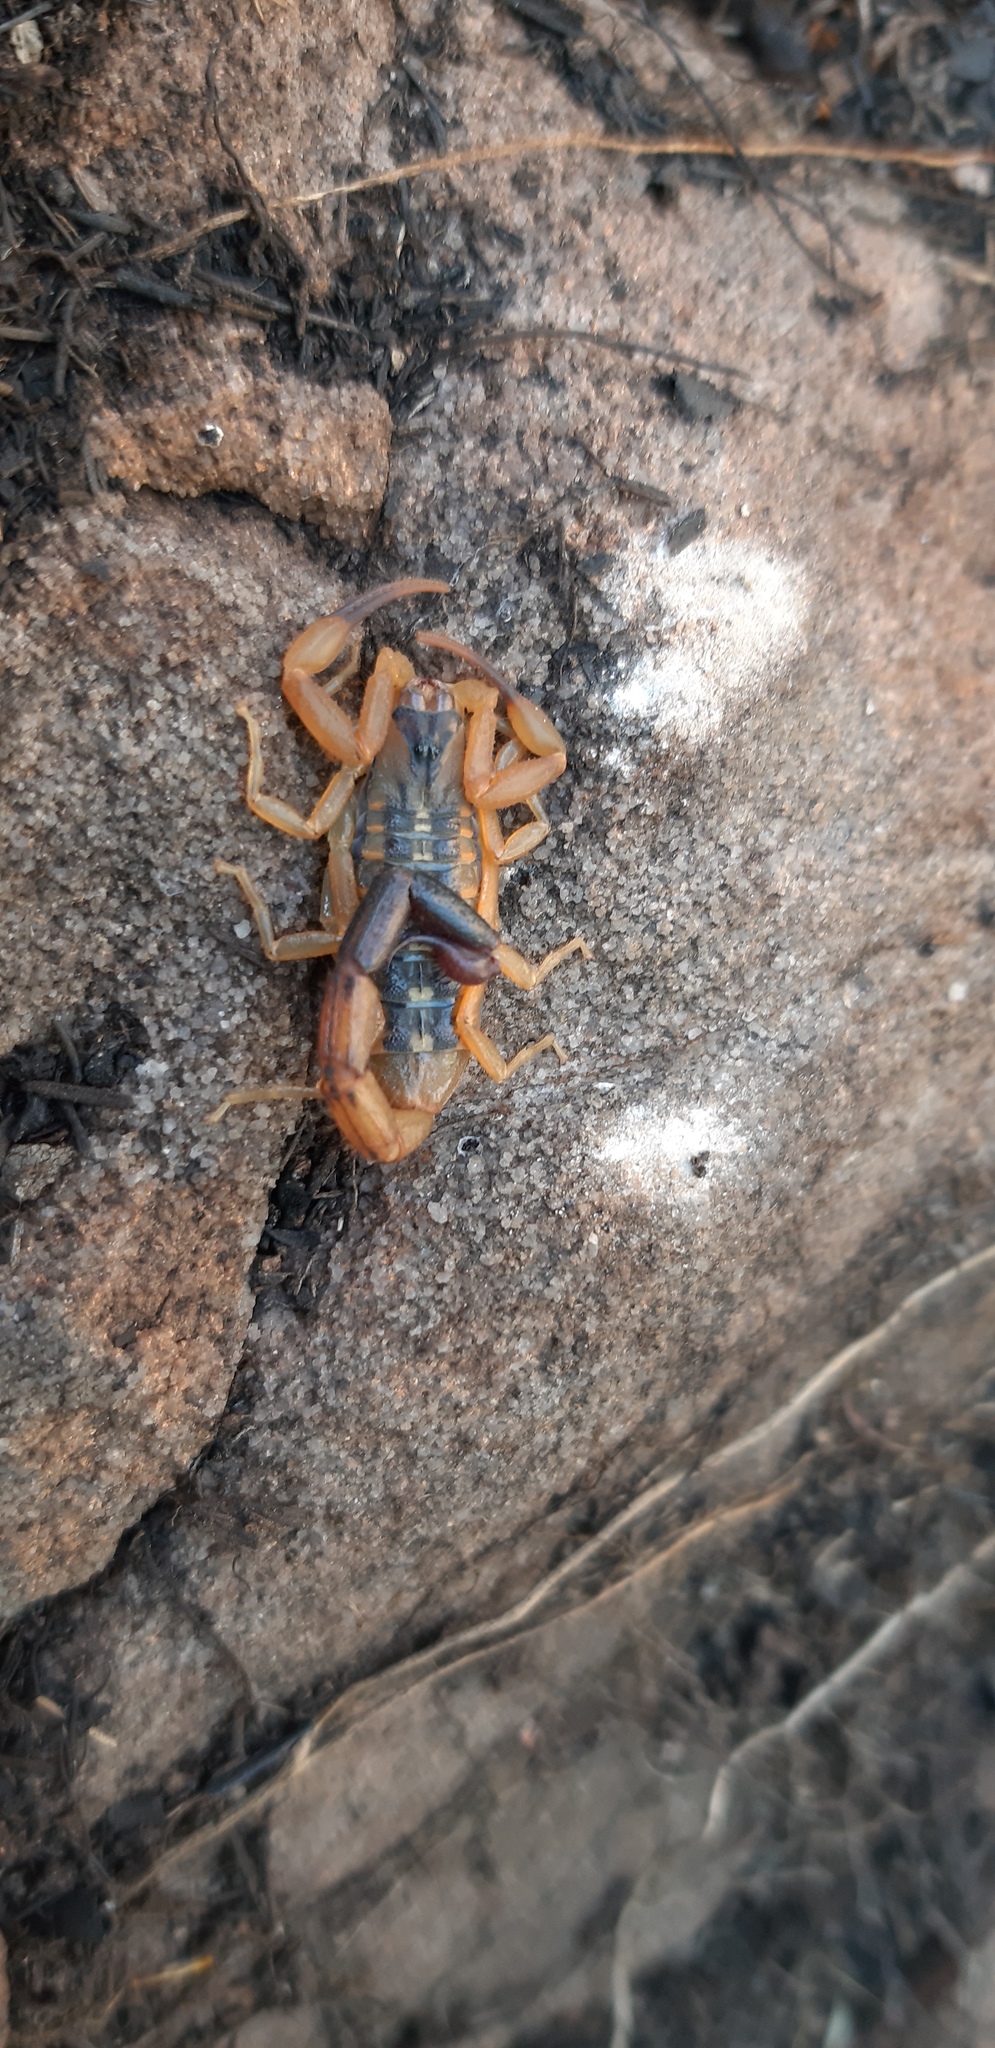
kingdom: Animalia
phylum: Arthropoda
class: Arachnida
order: Scorpiones
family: Buthidae
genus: Uroplectes
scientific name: Uroplectes vittatus
